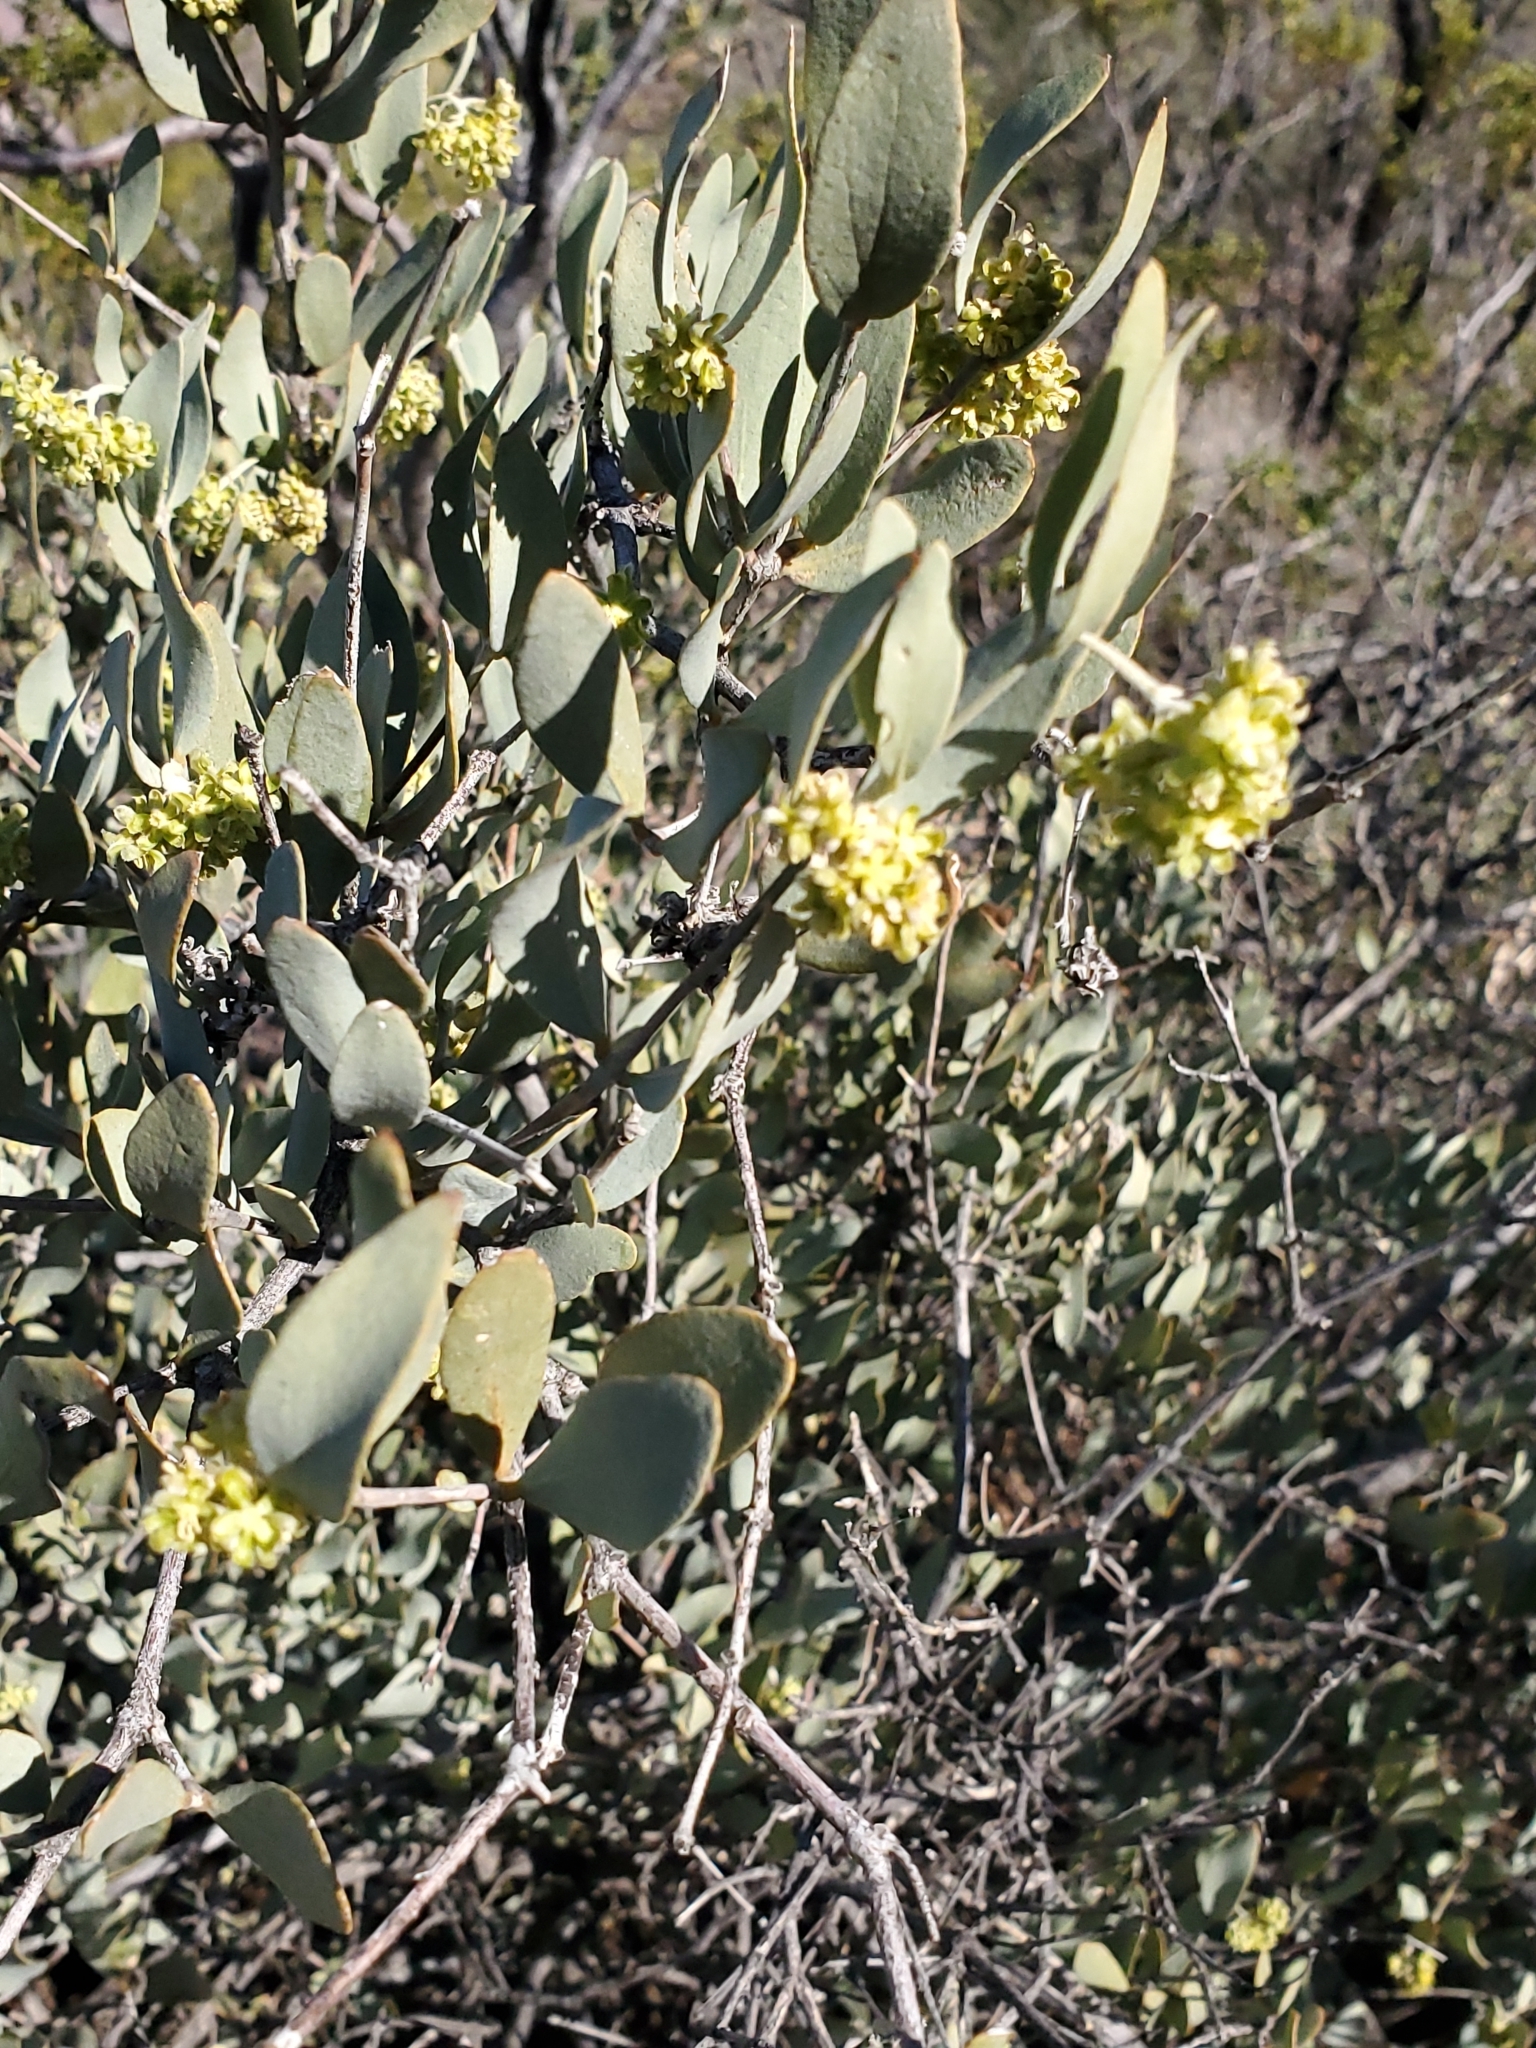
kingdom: Plantae
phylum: Tracheophyta
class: Magnoliopsida
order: Caryophyllales
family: Simmondsiaceae
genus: Simmondsia
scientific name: Simmondsia chinensis
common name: Jojoba
